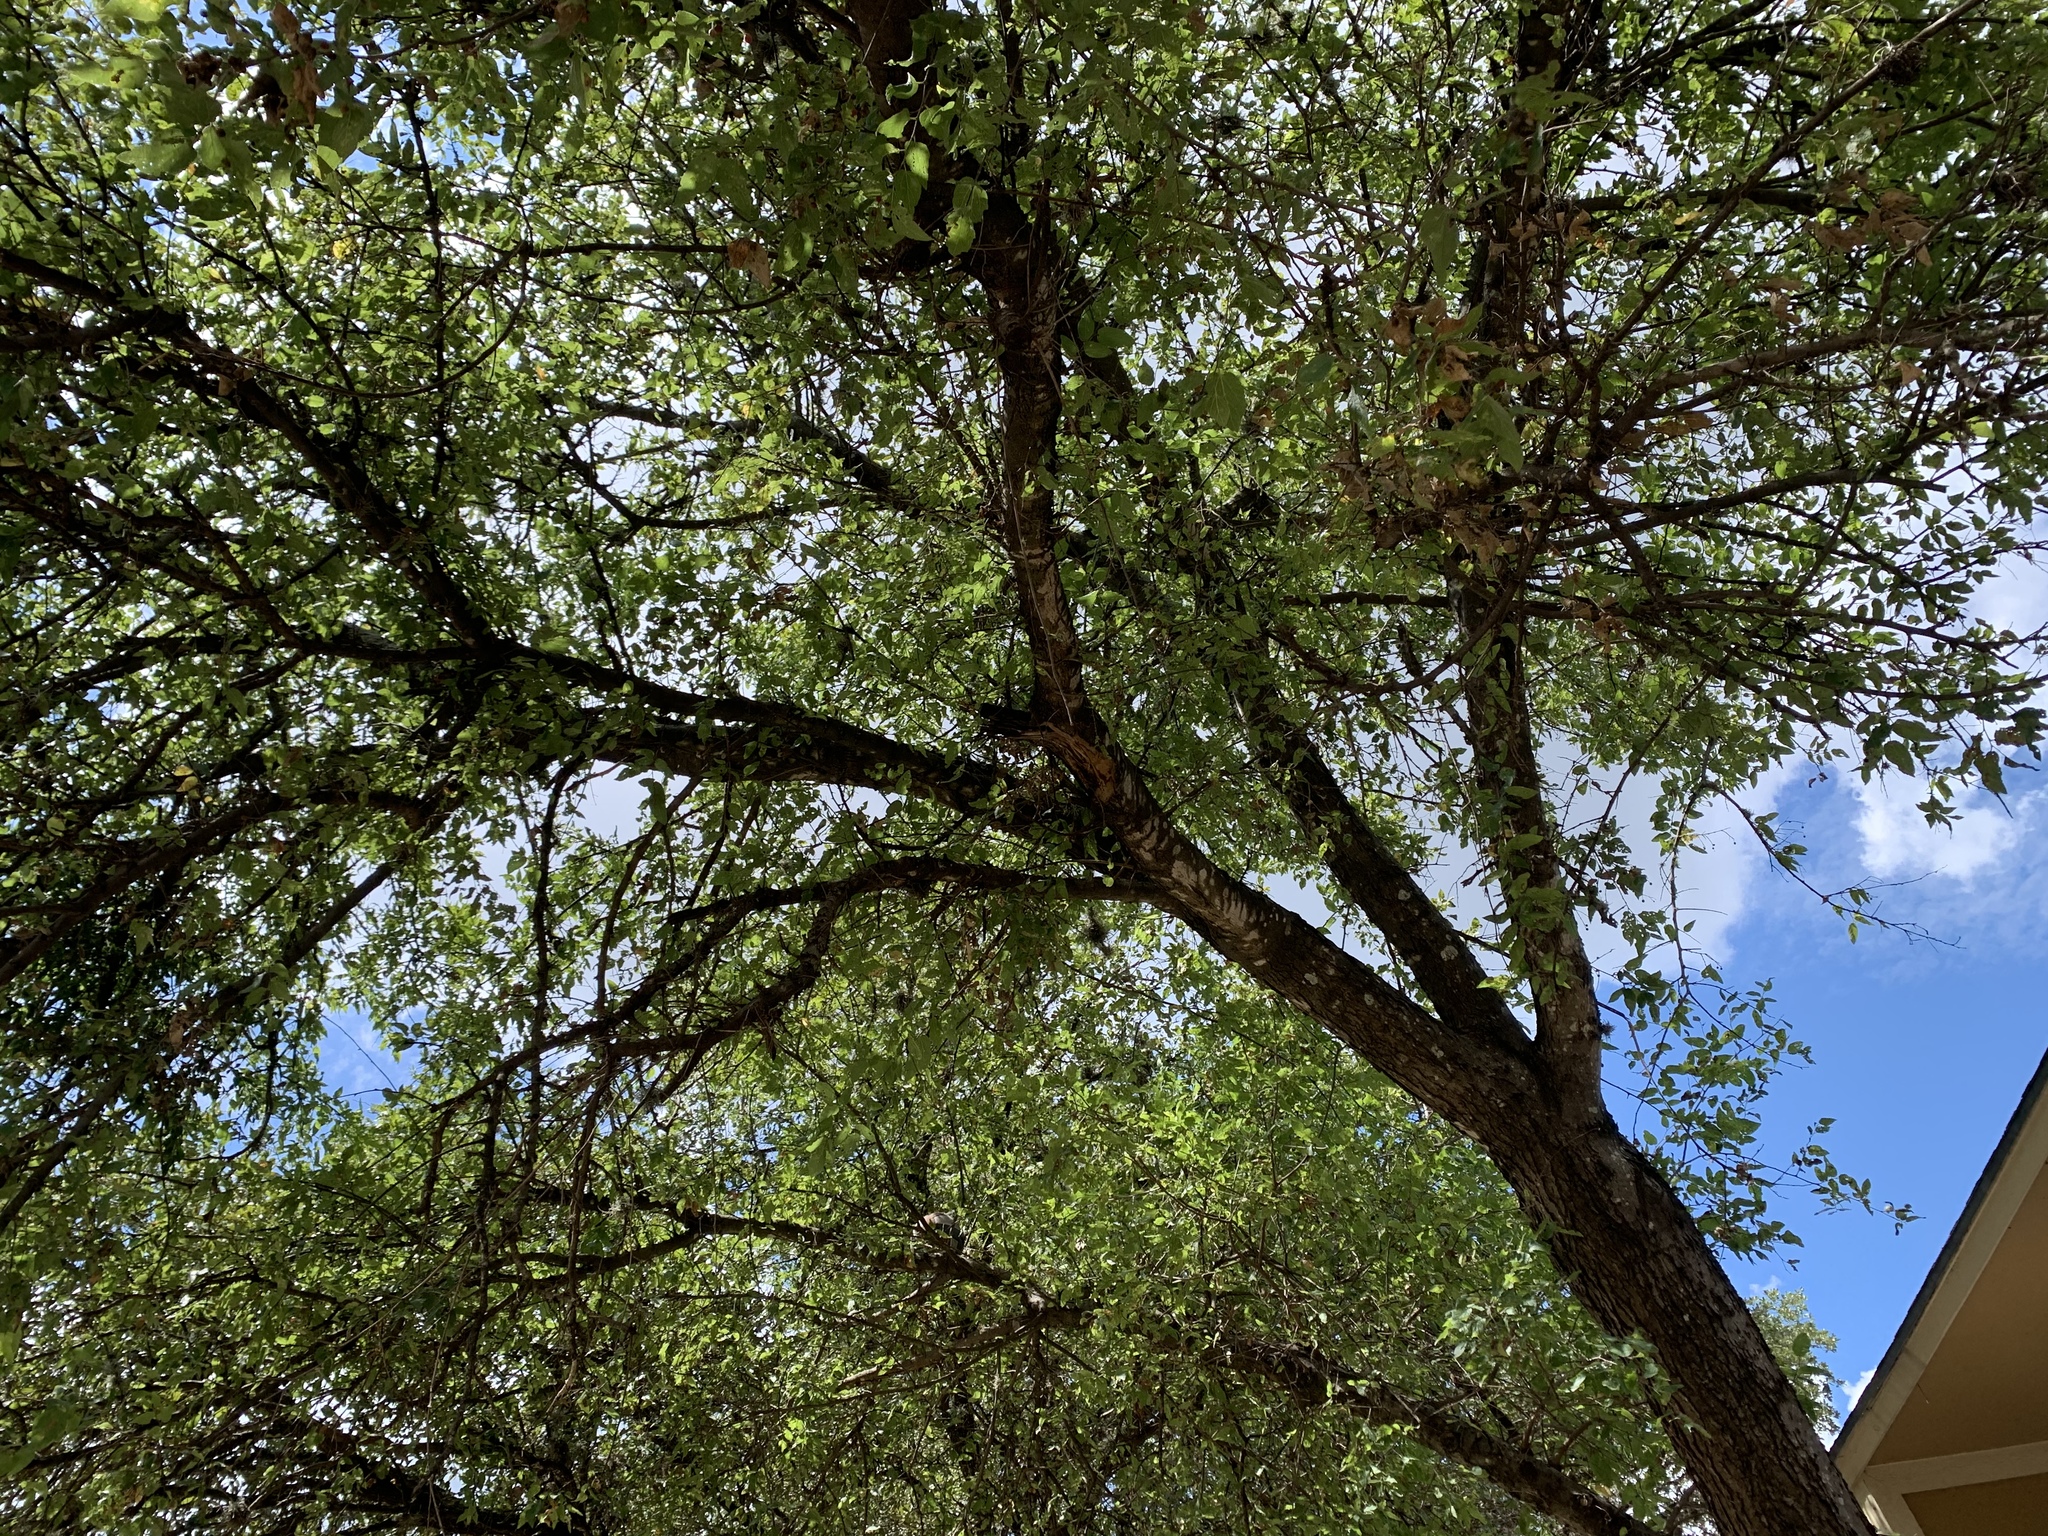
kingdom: Plantae
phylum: Tracheophyta
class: Magnoliopsida
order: Rosales
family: Cannabaceae
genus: Celtis
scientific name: Celtis laevigata
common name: Sugarberry
